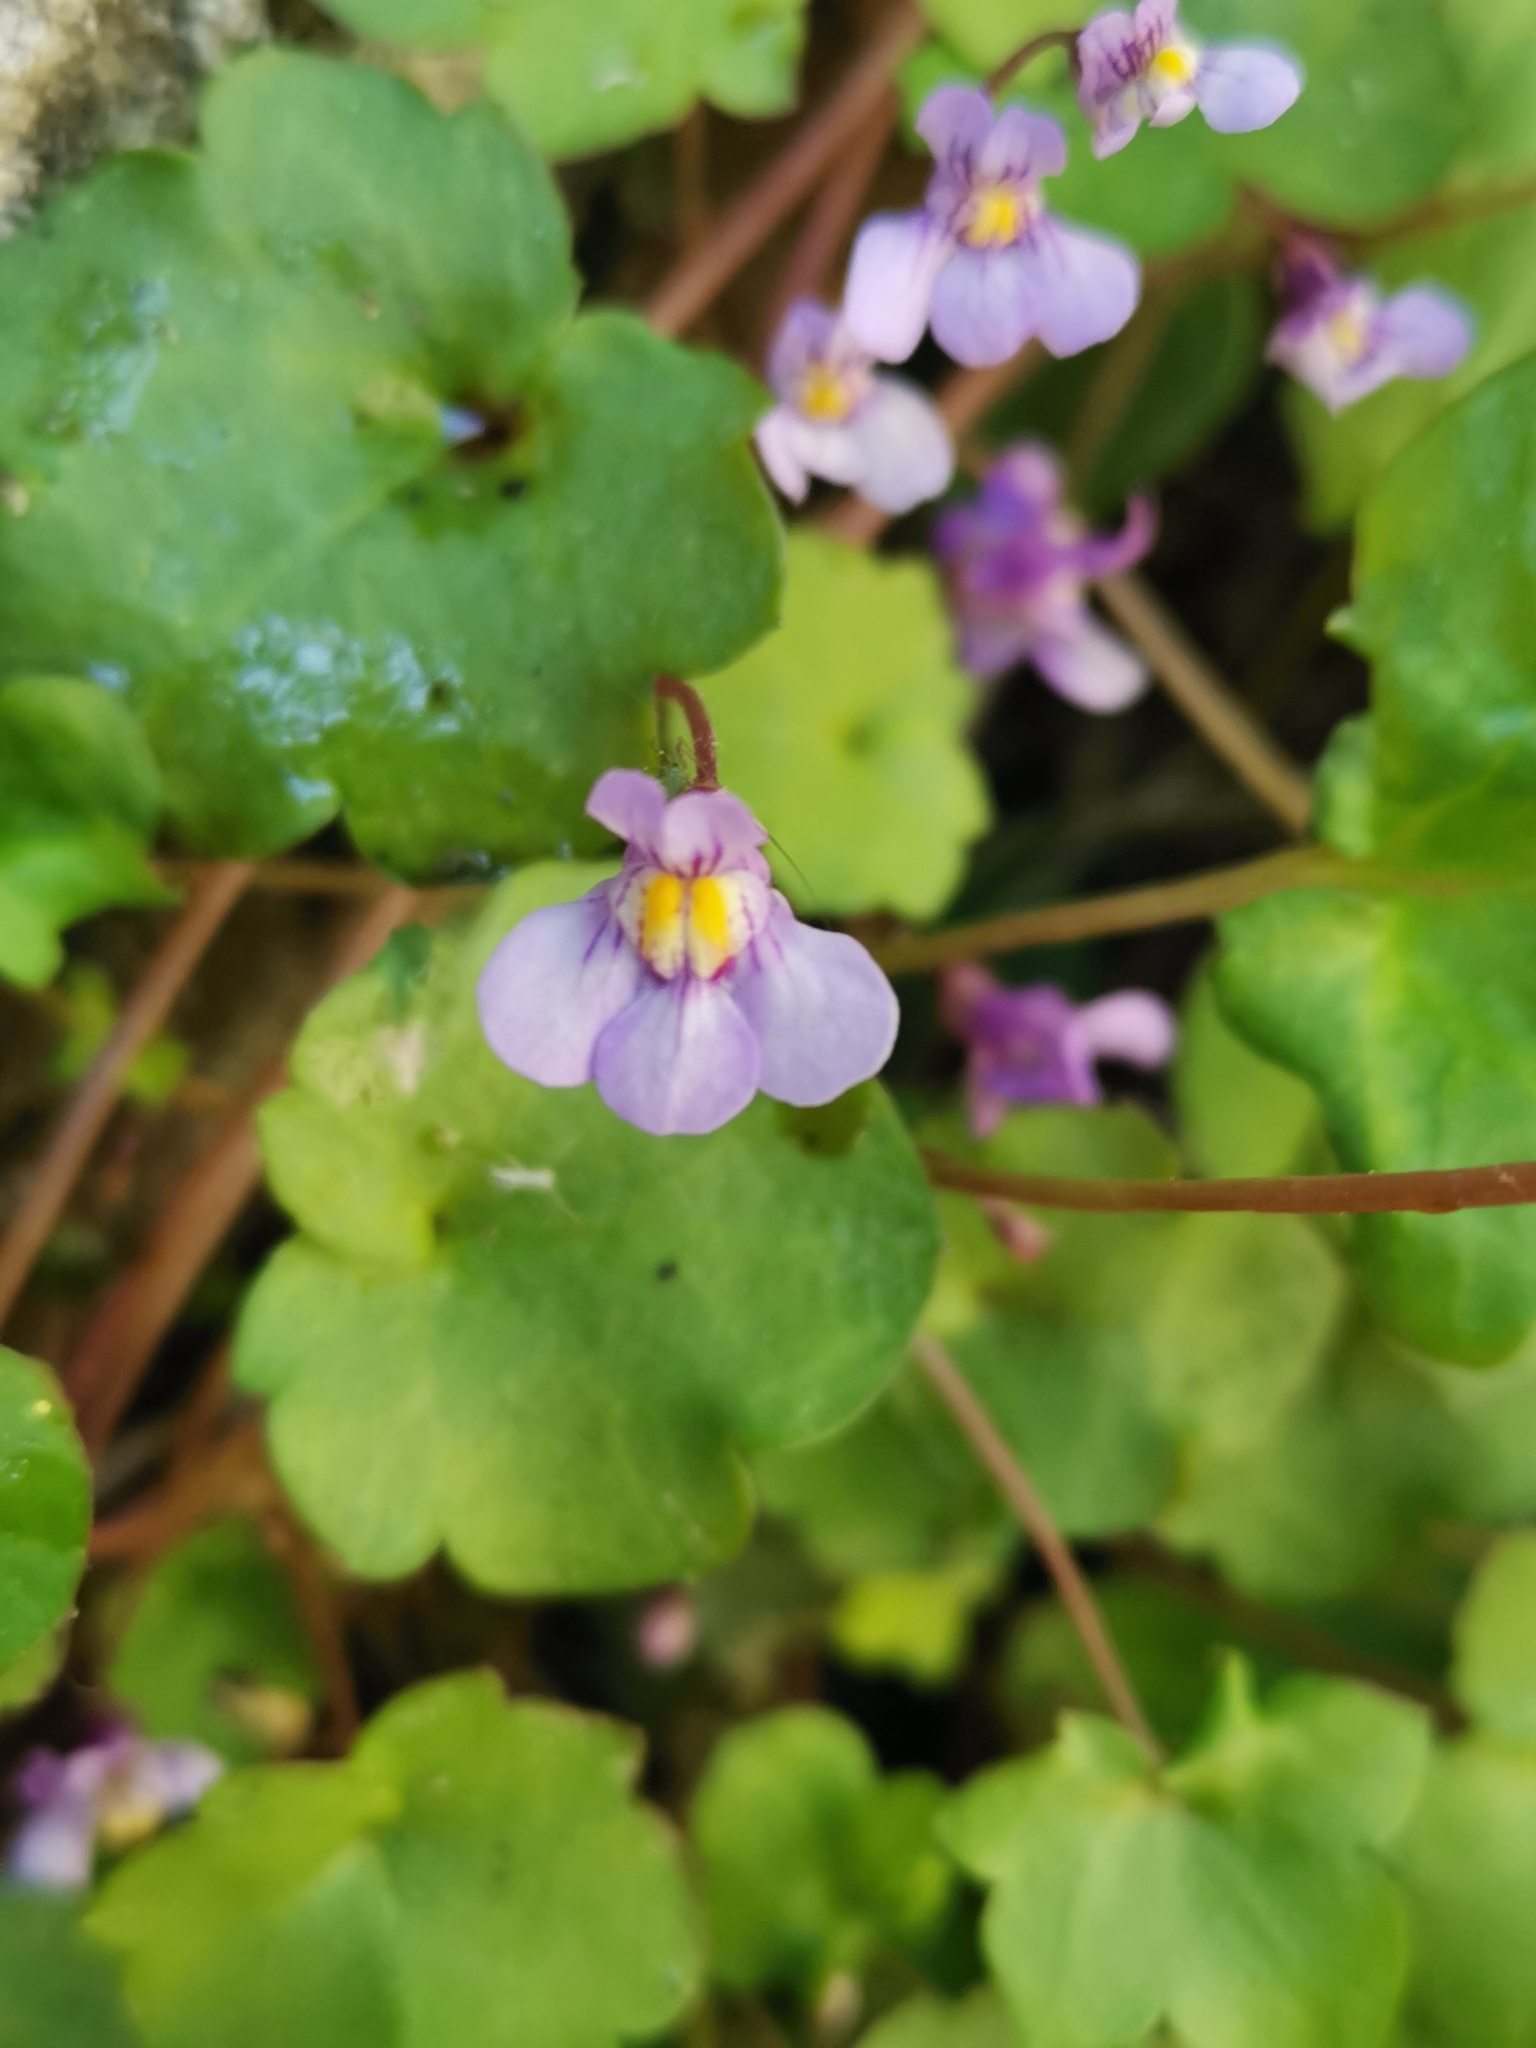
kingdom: Plantae
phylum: Tracheophyta
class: Magnoliopsida
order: Lamiales
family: Plantaginaceae
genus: Cymbalaria
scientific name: Cymbalaria muralis
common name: Ivy-leaved toadflax
